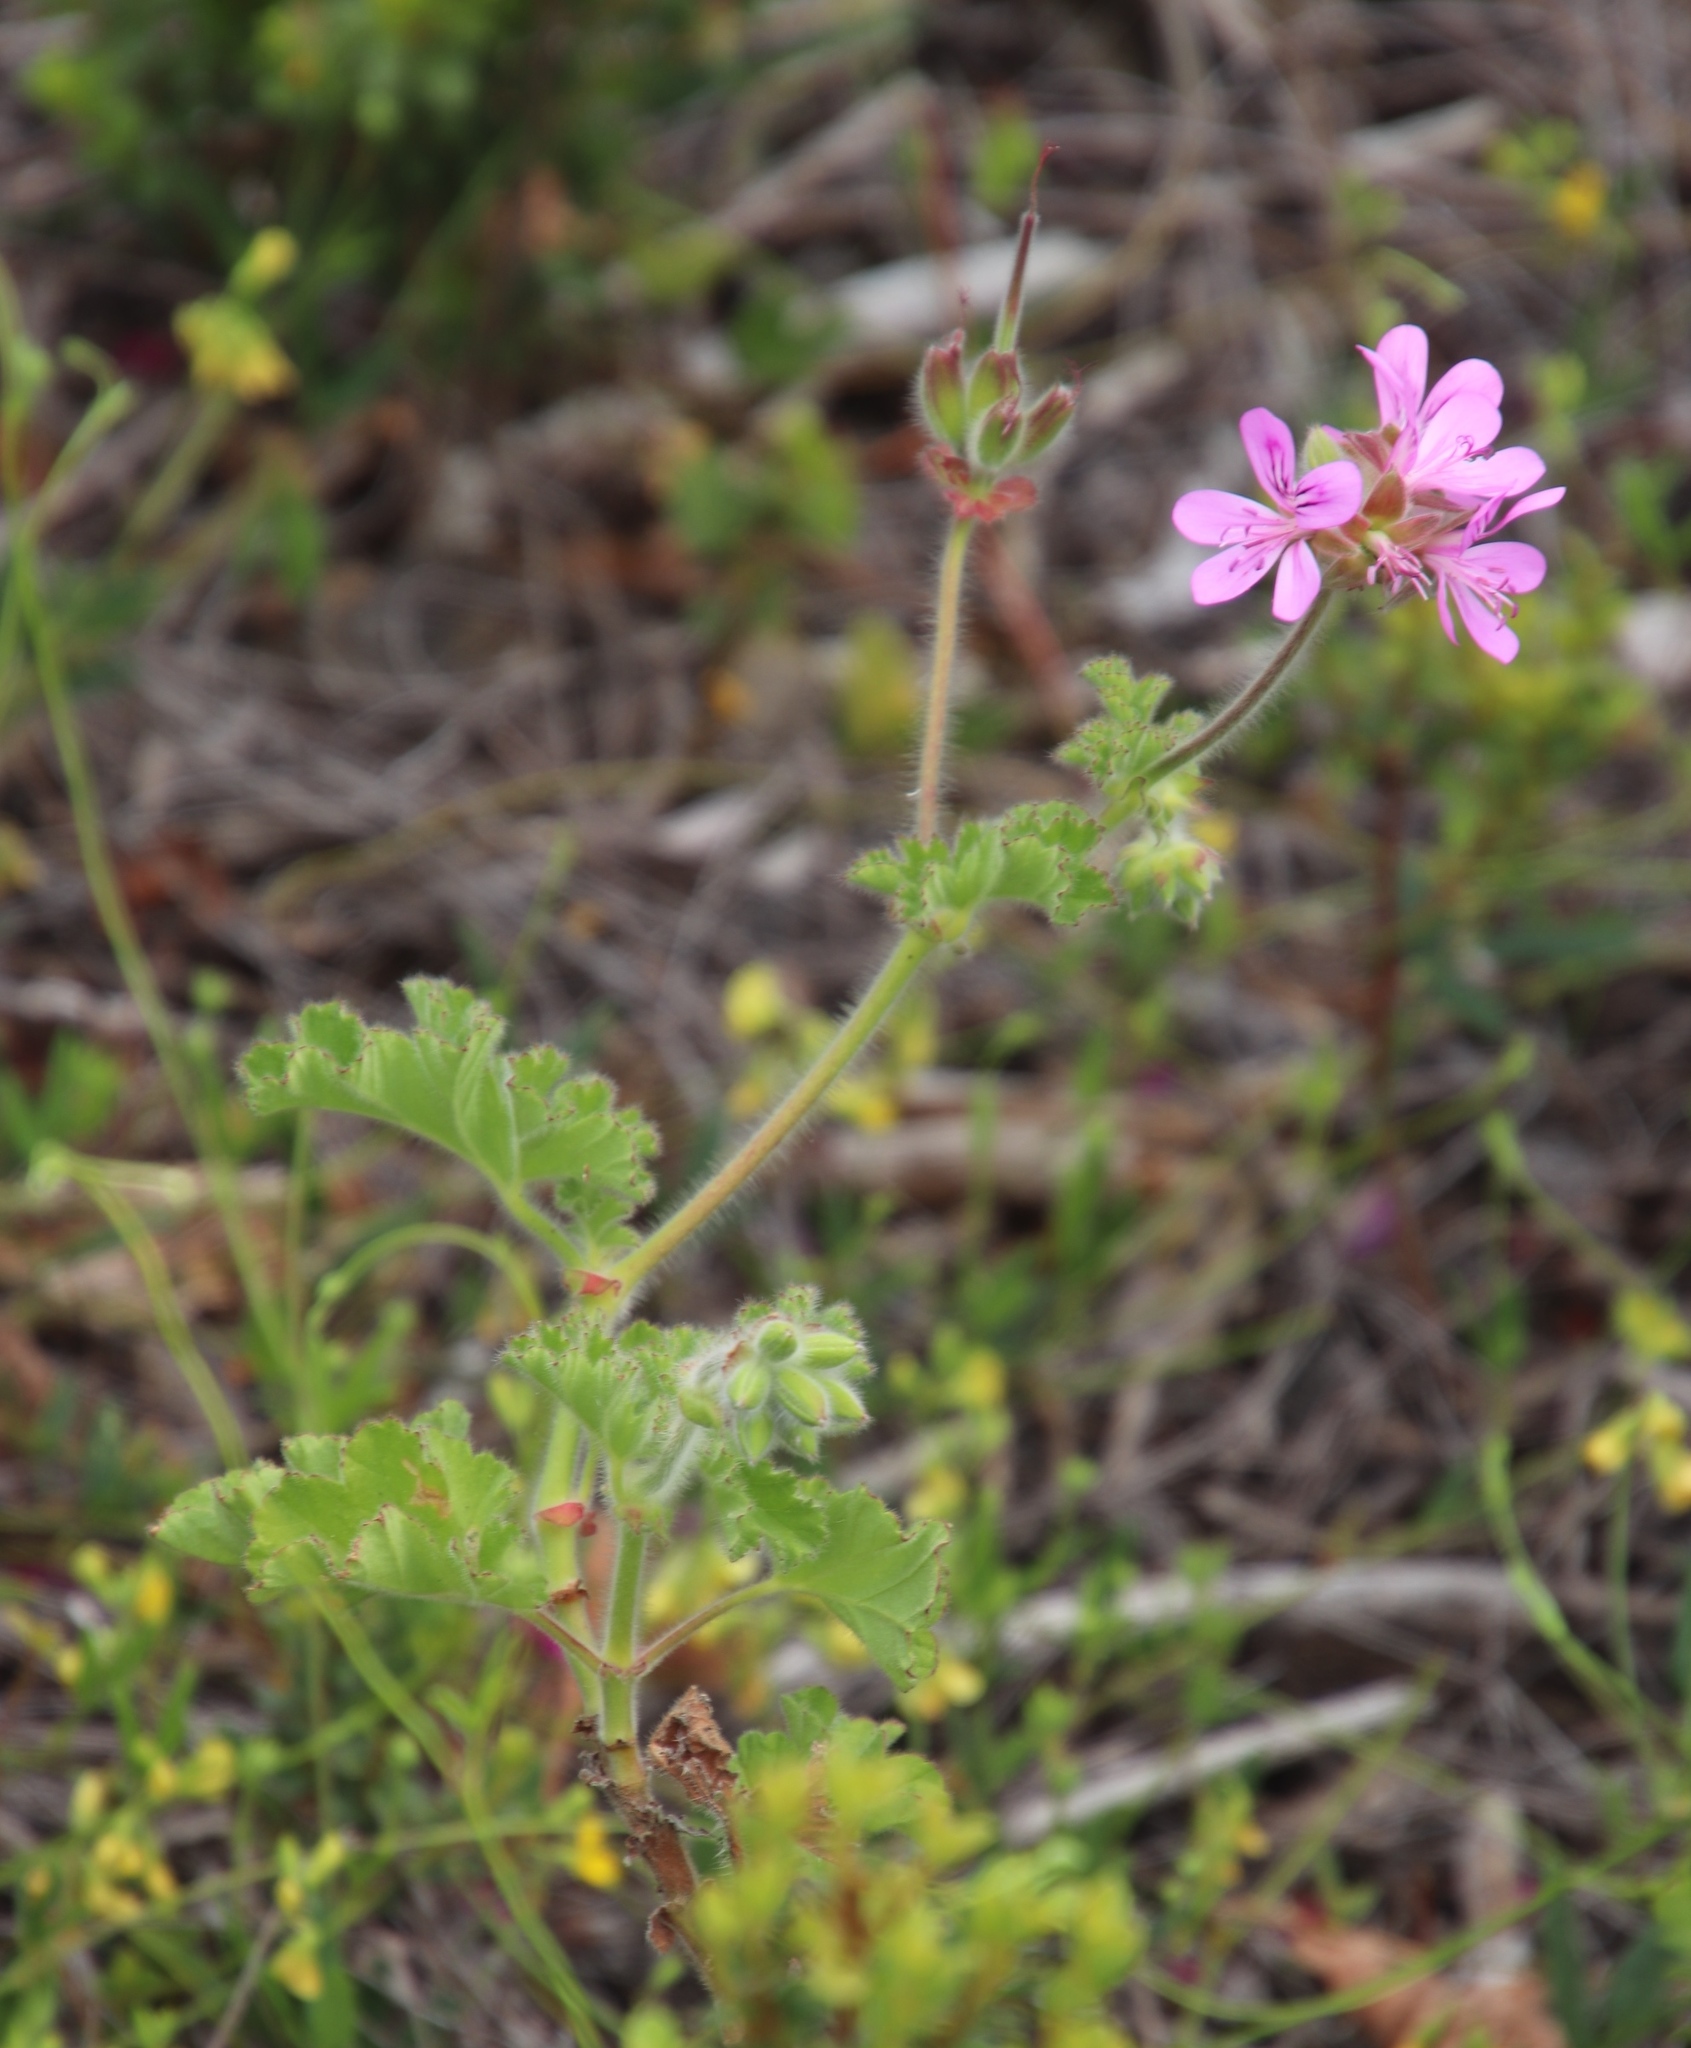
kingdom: Plantae
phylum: Tracheophyta
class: Magnoliopsida
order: Geraniales
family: Geraniaceae
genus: Pelargonium
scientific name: Pelargonium capitatum
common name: Rose scented geranium
